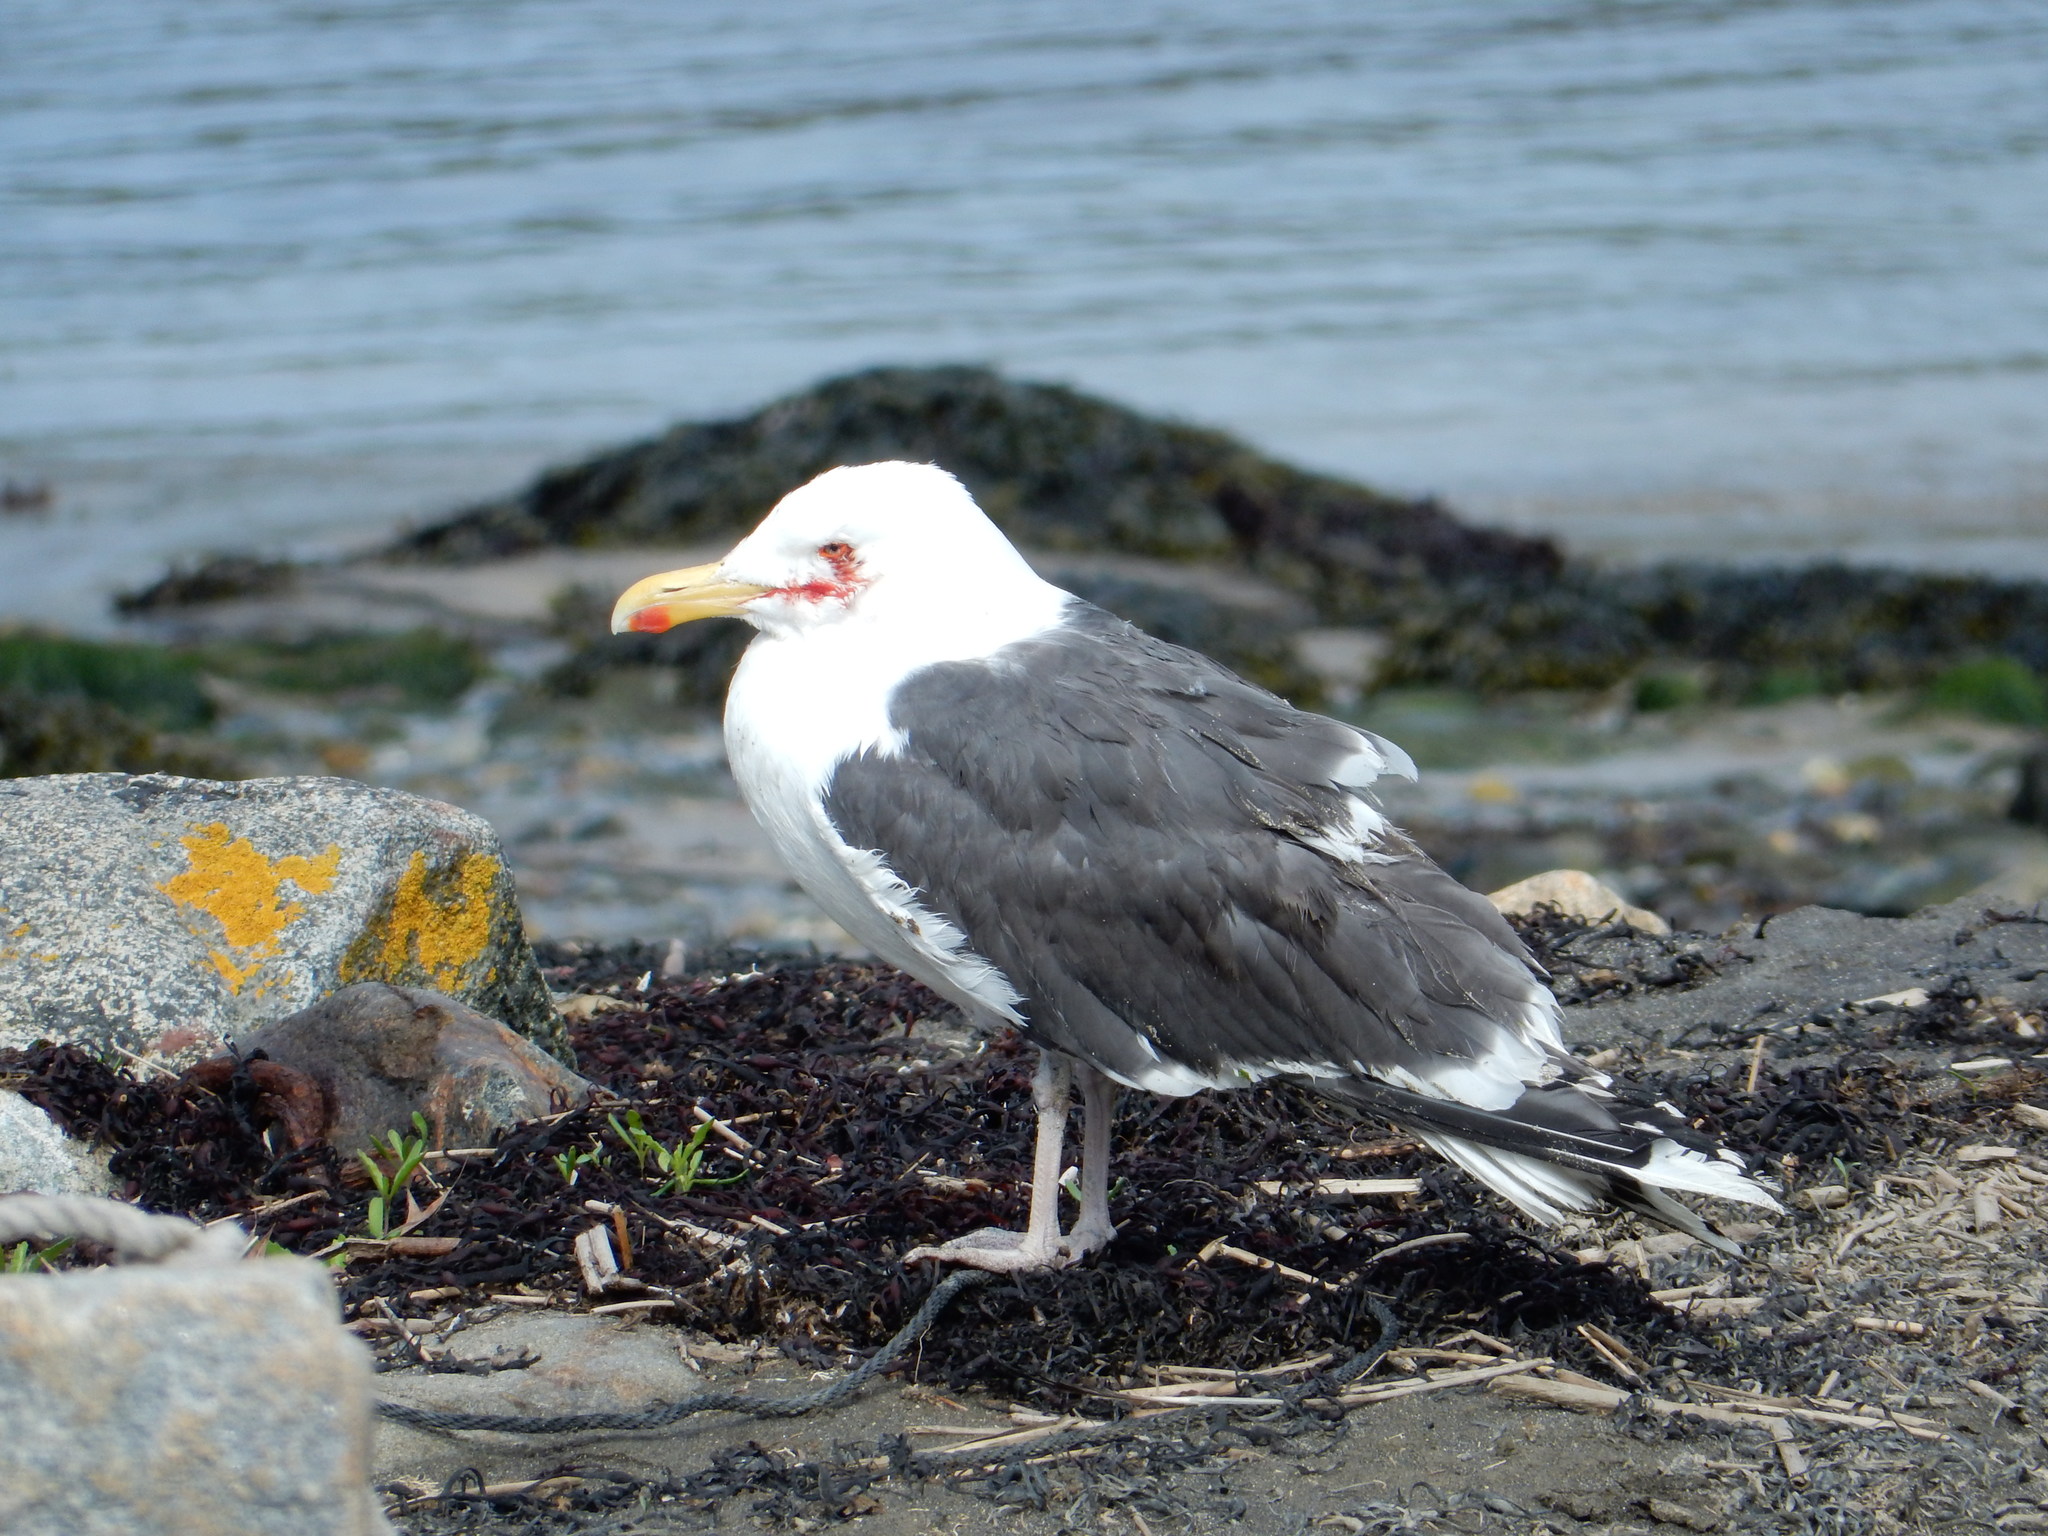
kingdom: Animalia
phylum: Chordata
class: Aves
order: Charadriiformes
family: Laridae
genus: Larus
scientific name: Larus marinus
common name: Great black-backed gull
